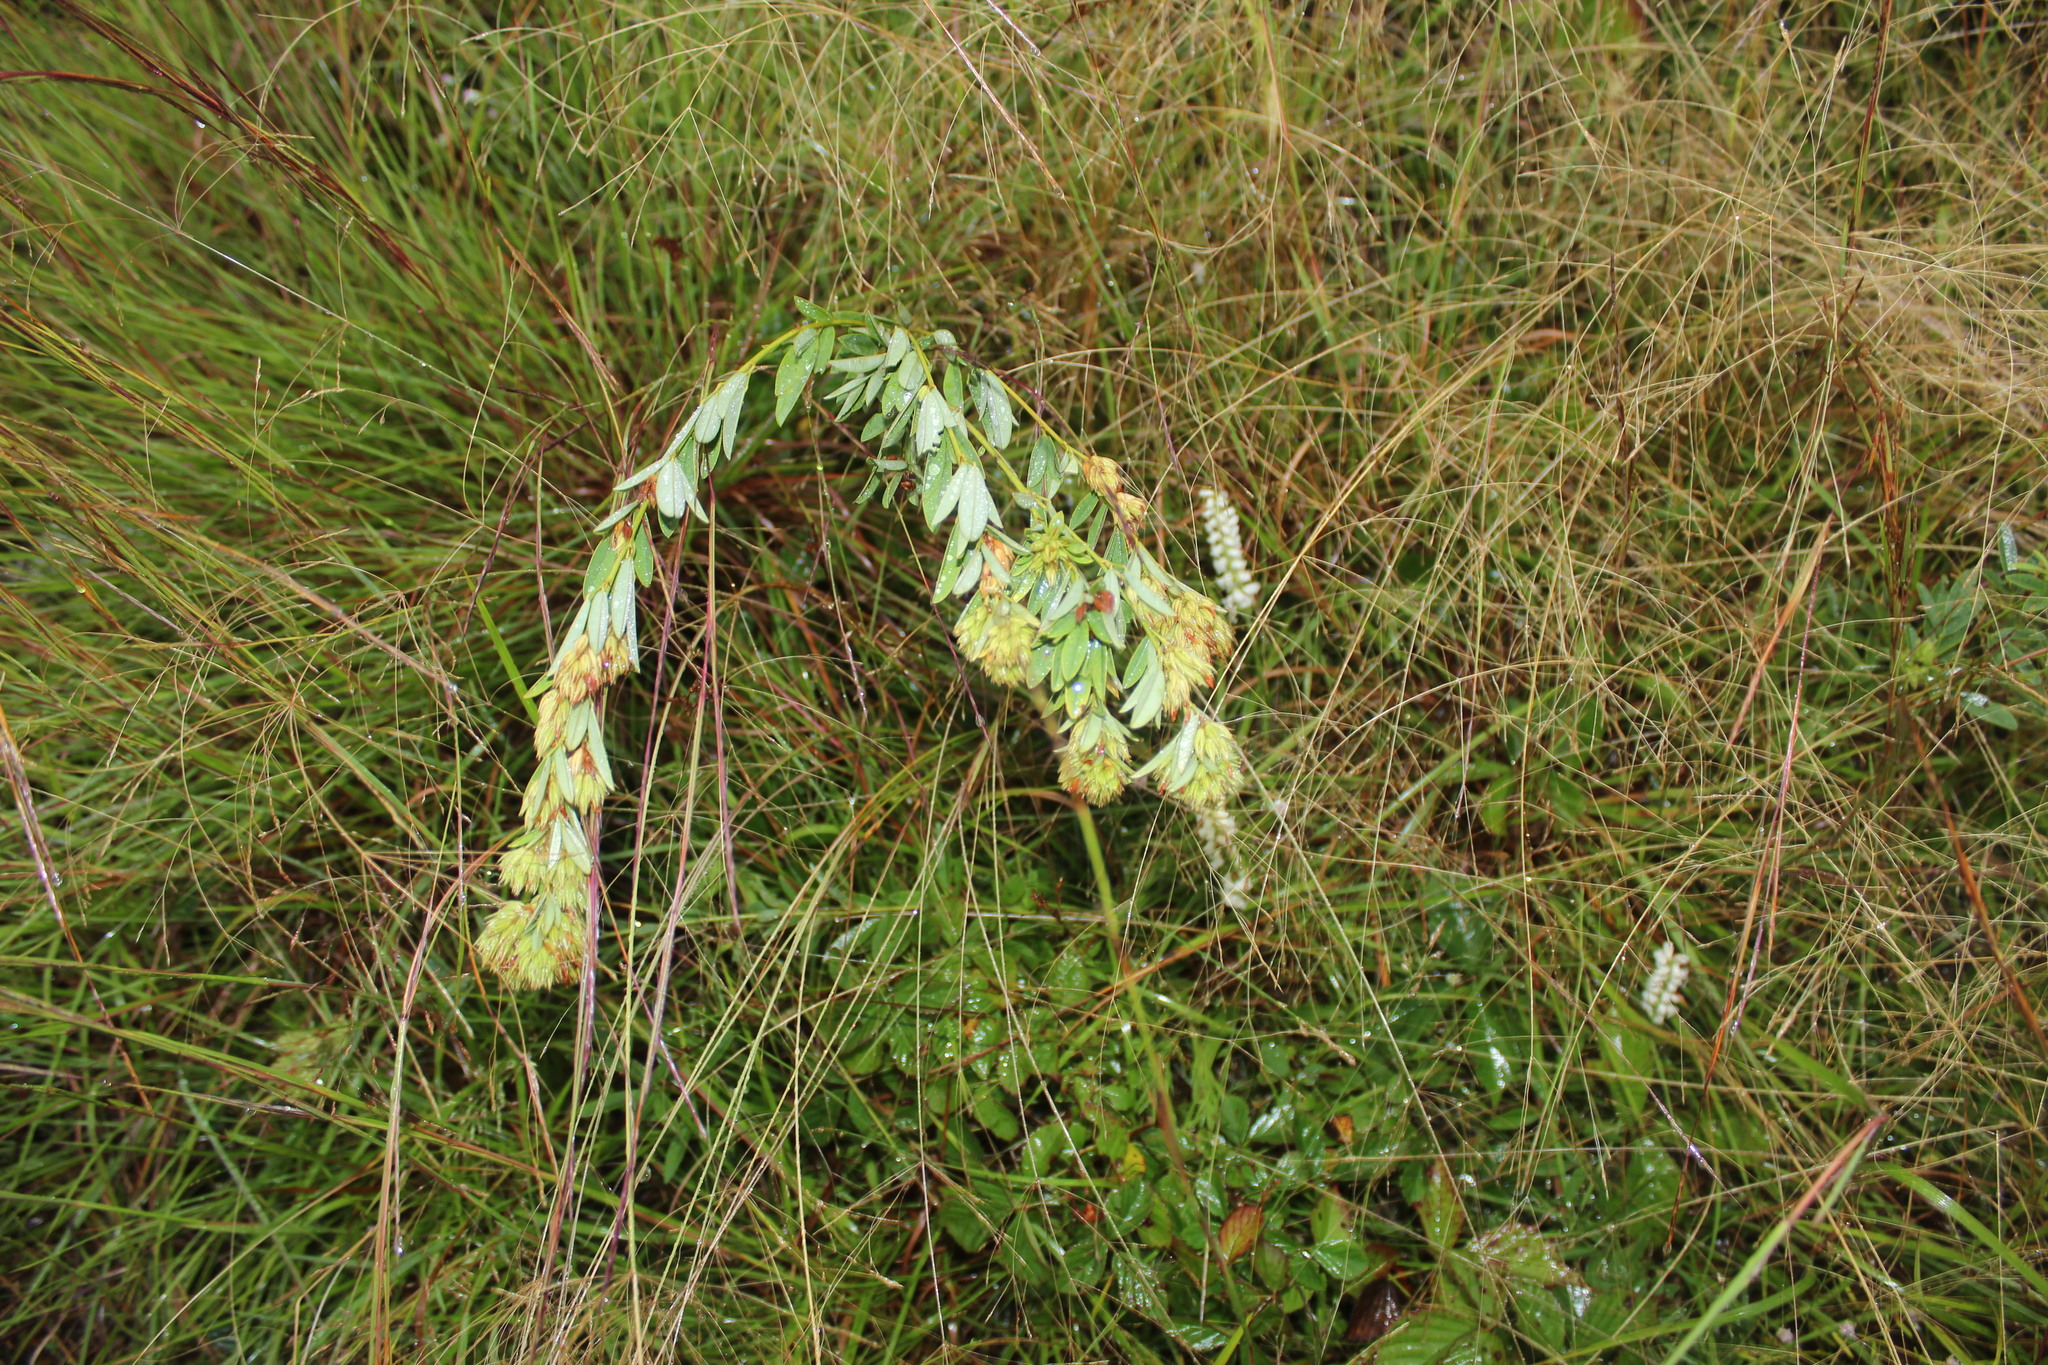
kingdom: Plantae
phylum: Tracheophyta
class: Magnoliopsida
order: Fabales
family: Fabaceae
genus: Lespedeza
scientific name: Lespedeza capitata
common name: Dusty clover
